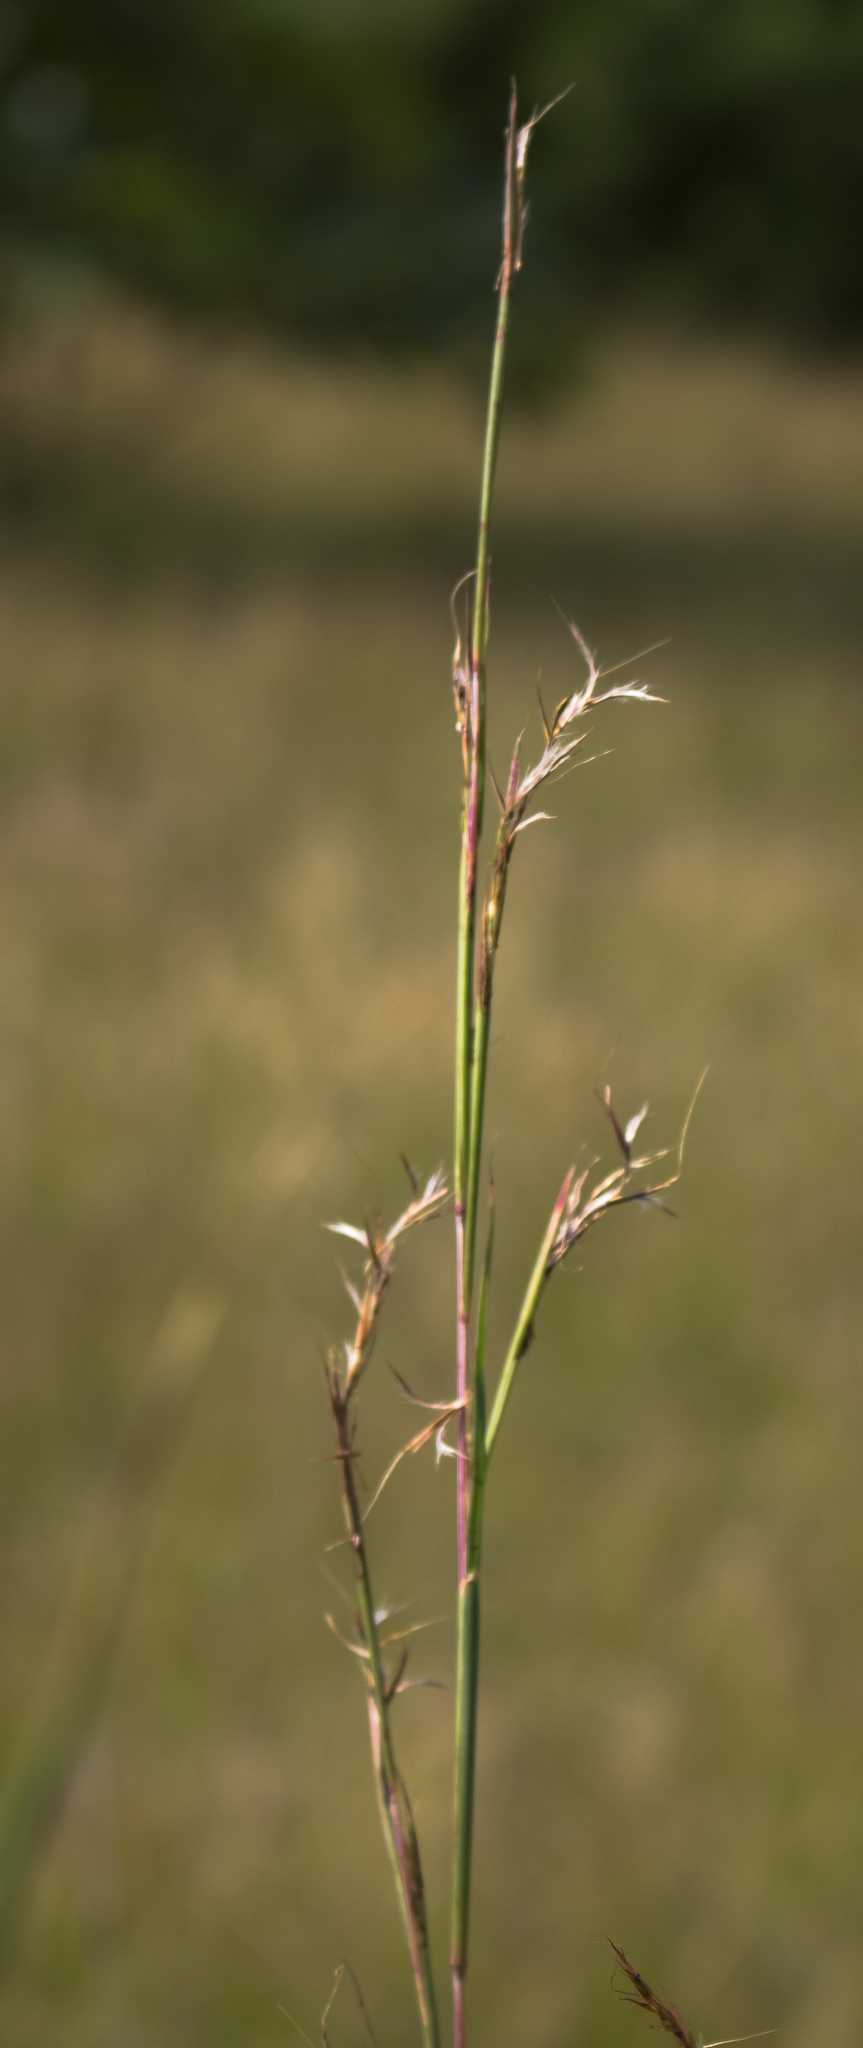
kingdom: Plantae
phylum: Tracheophyta
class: Liliopsida
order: Poales
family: Poaceae
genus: Schizachyrium
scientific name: Schizachyrium scoparium
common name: Little bluestem
